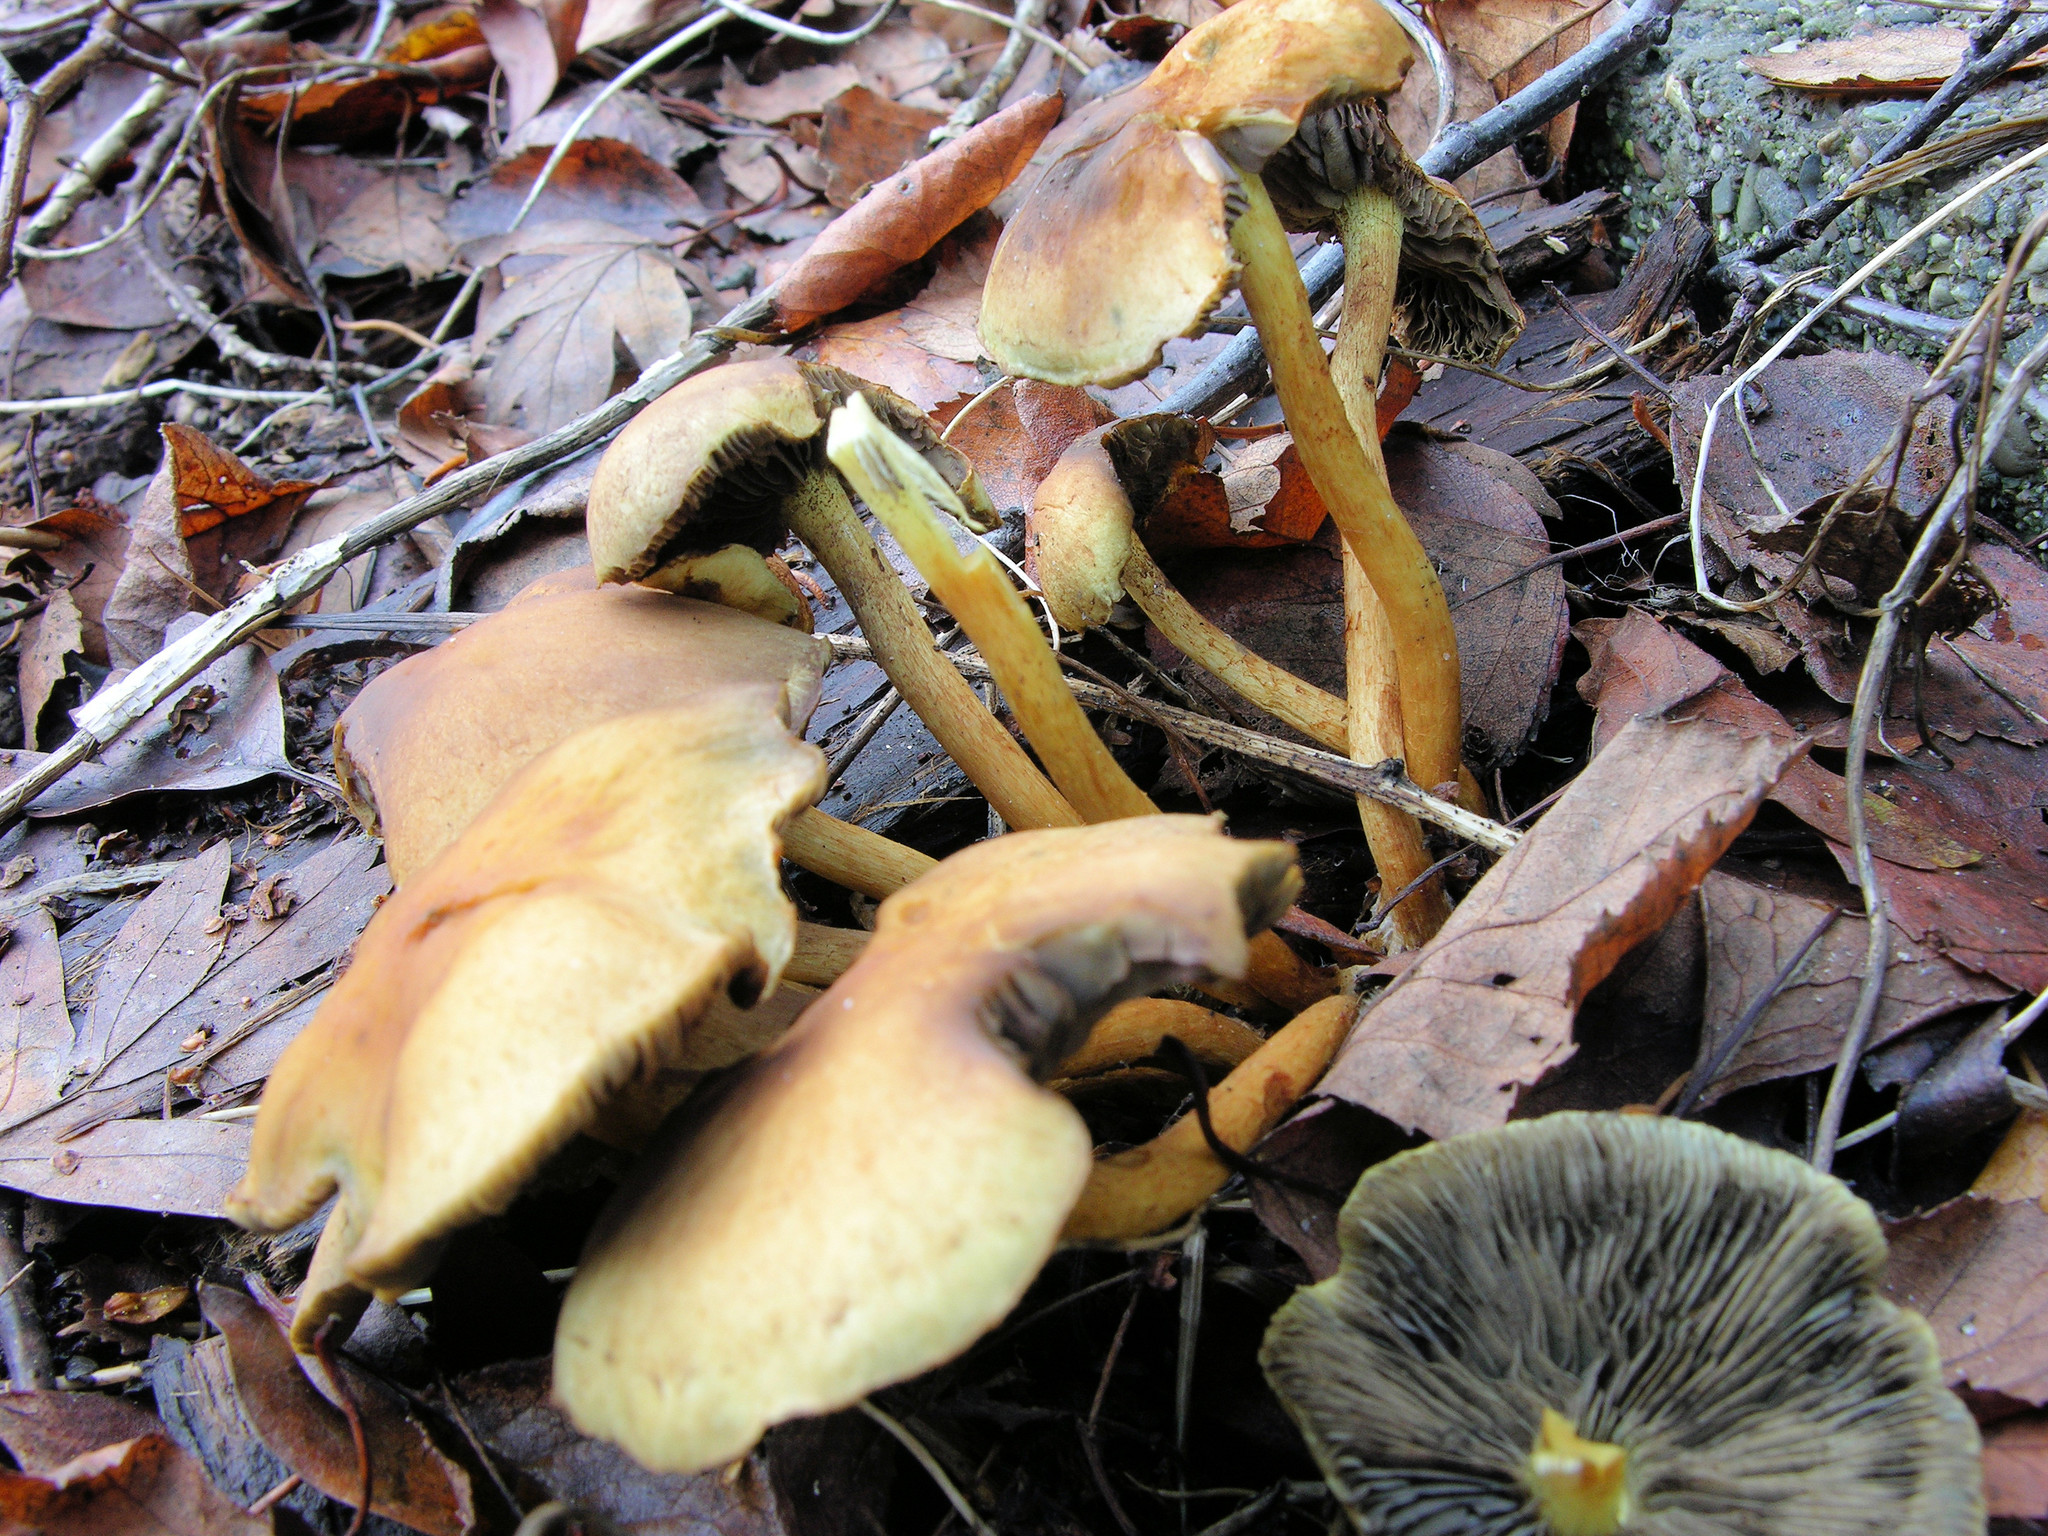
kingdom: Fungi
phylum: Basidiomycota
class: Agaricomycetes
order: Agaricales
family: Strophariaceae
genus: Hypholoma
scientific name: Hypholoma fasciculare
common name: Sulphur tuft
